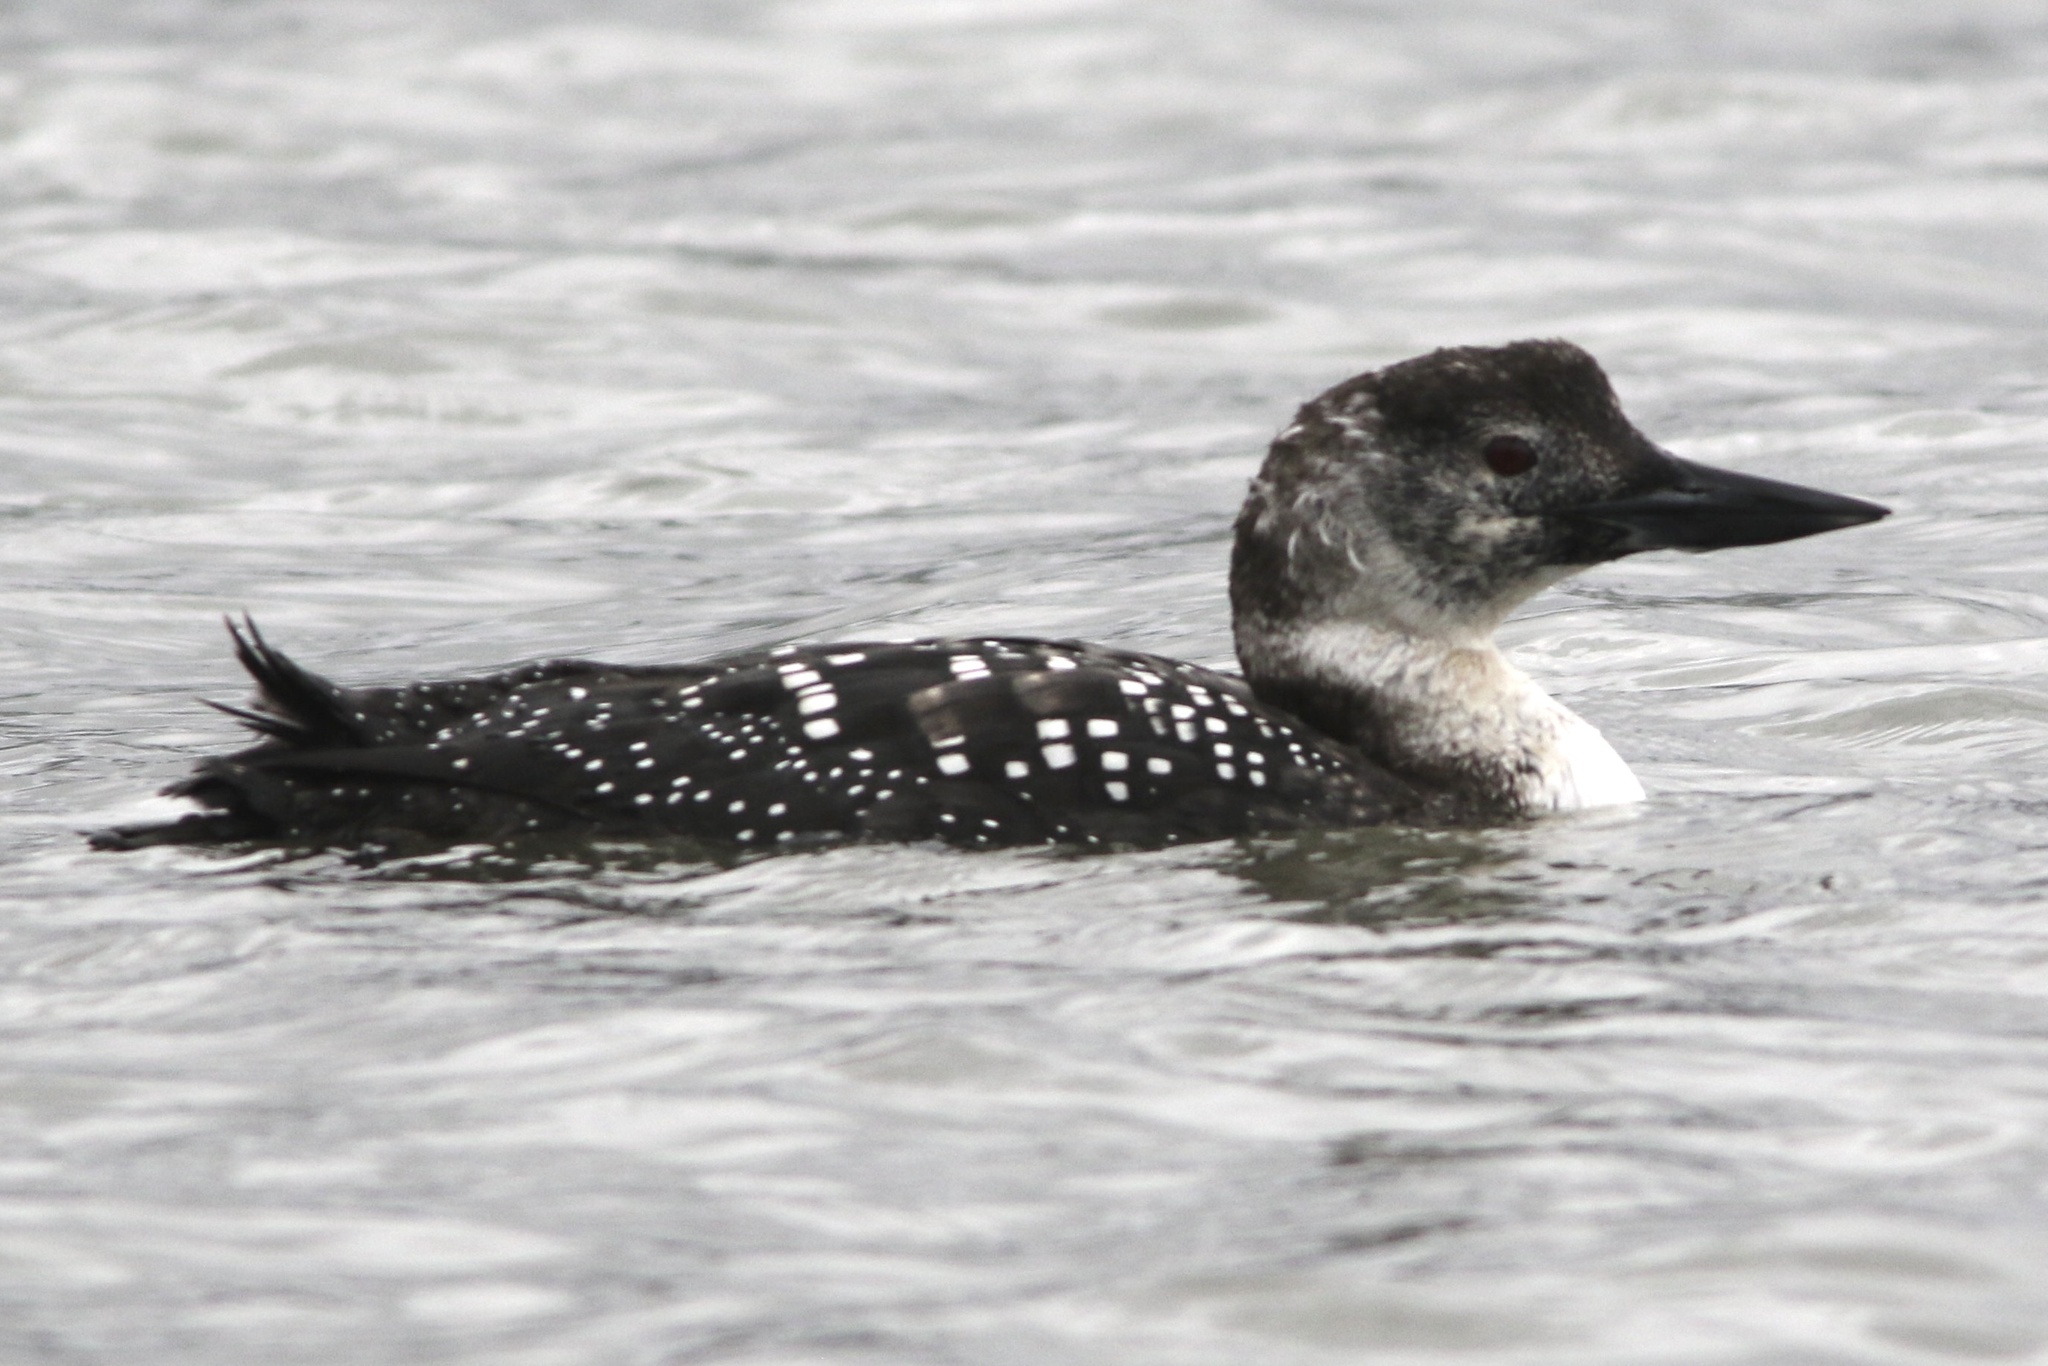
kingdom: Animalia
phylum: Chordata
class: Aves
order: Gaviiformes
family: Gaviidae
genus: Gavia
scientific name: Gavia immer
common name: Common loon
